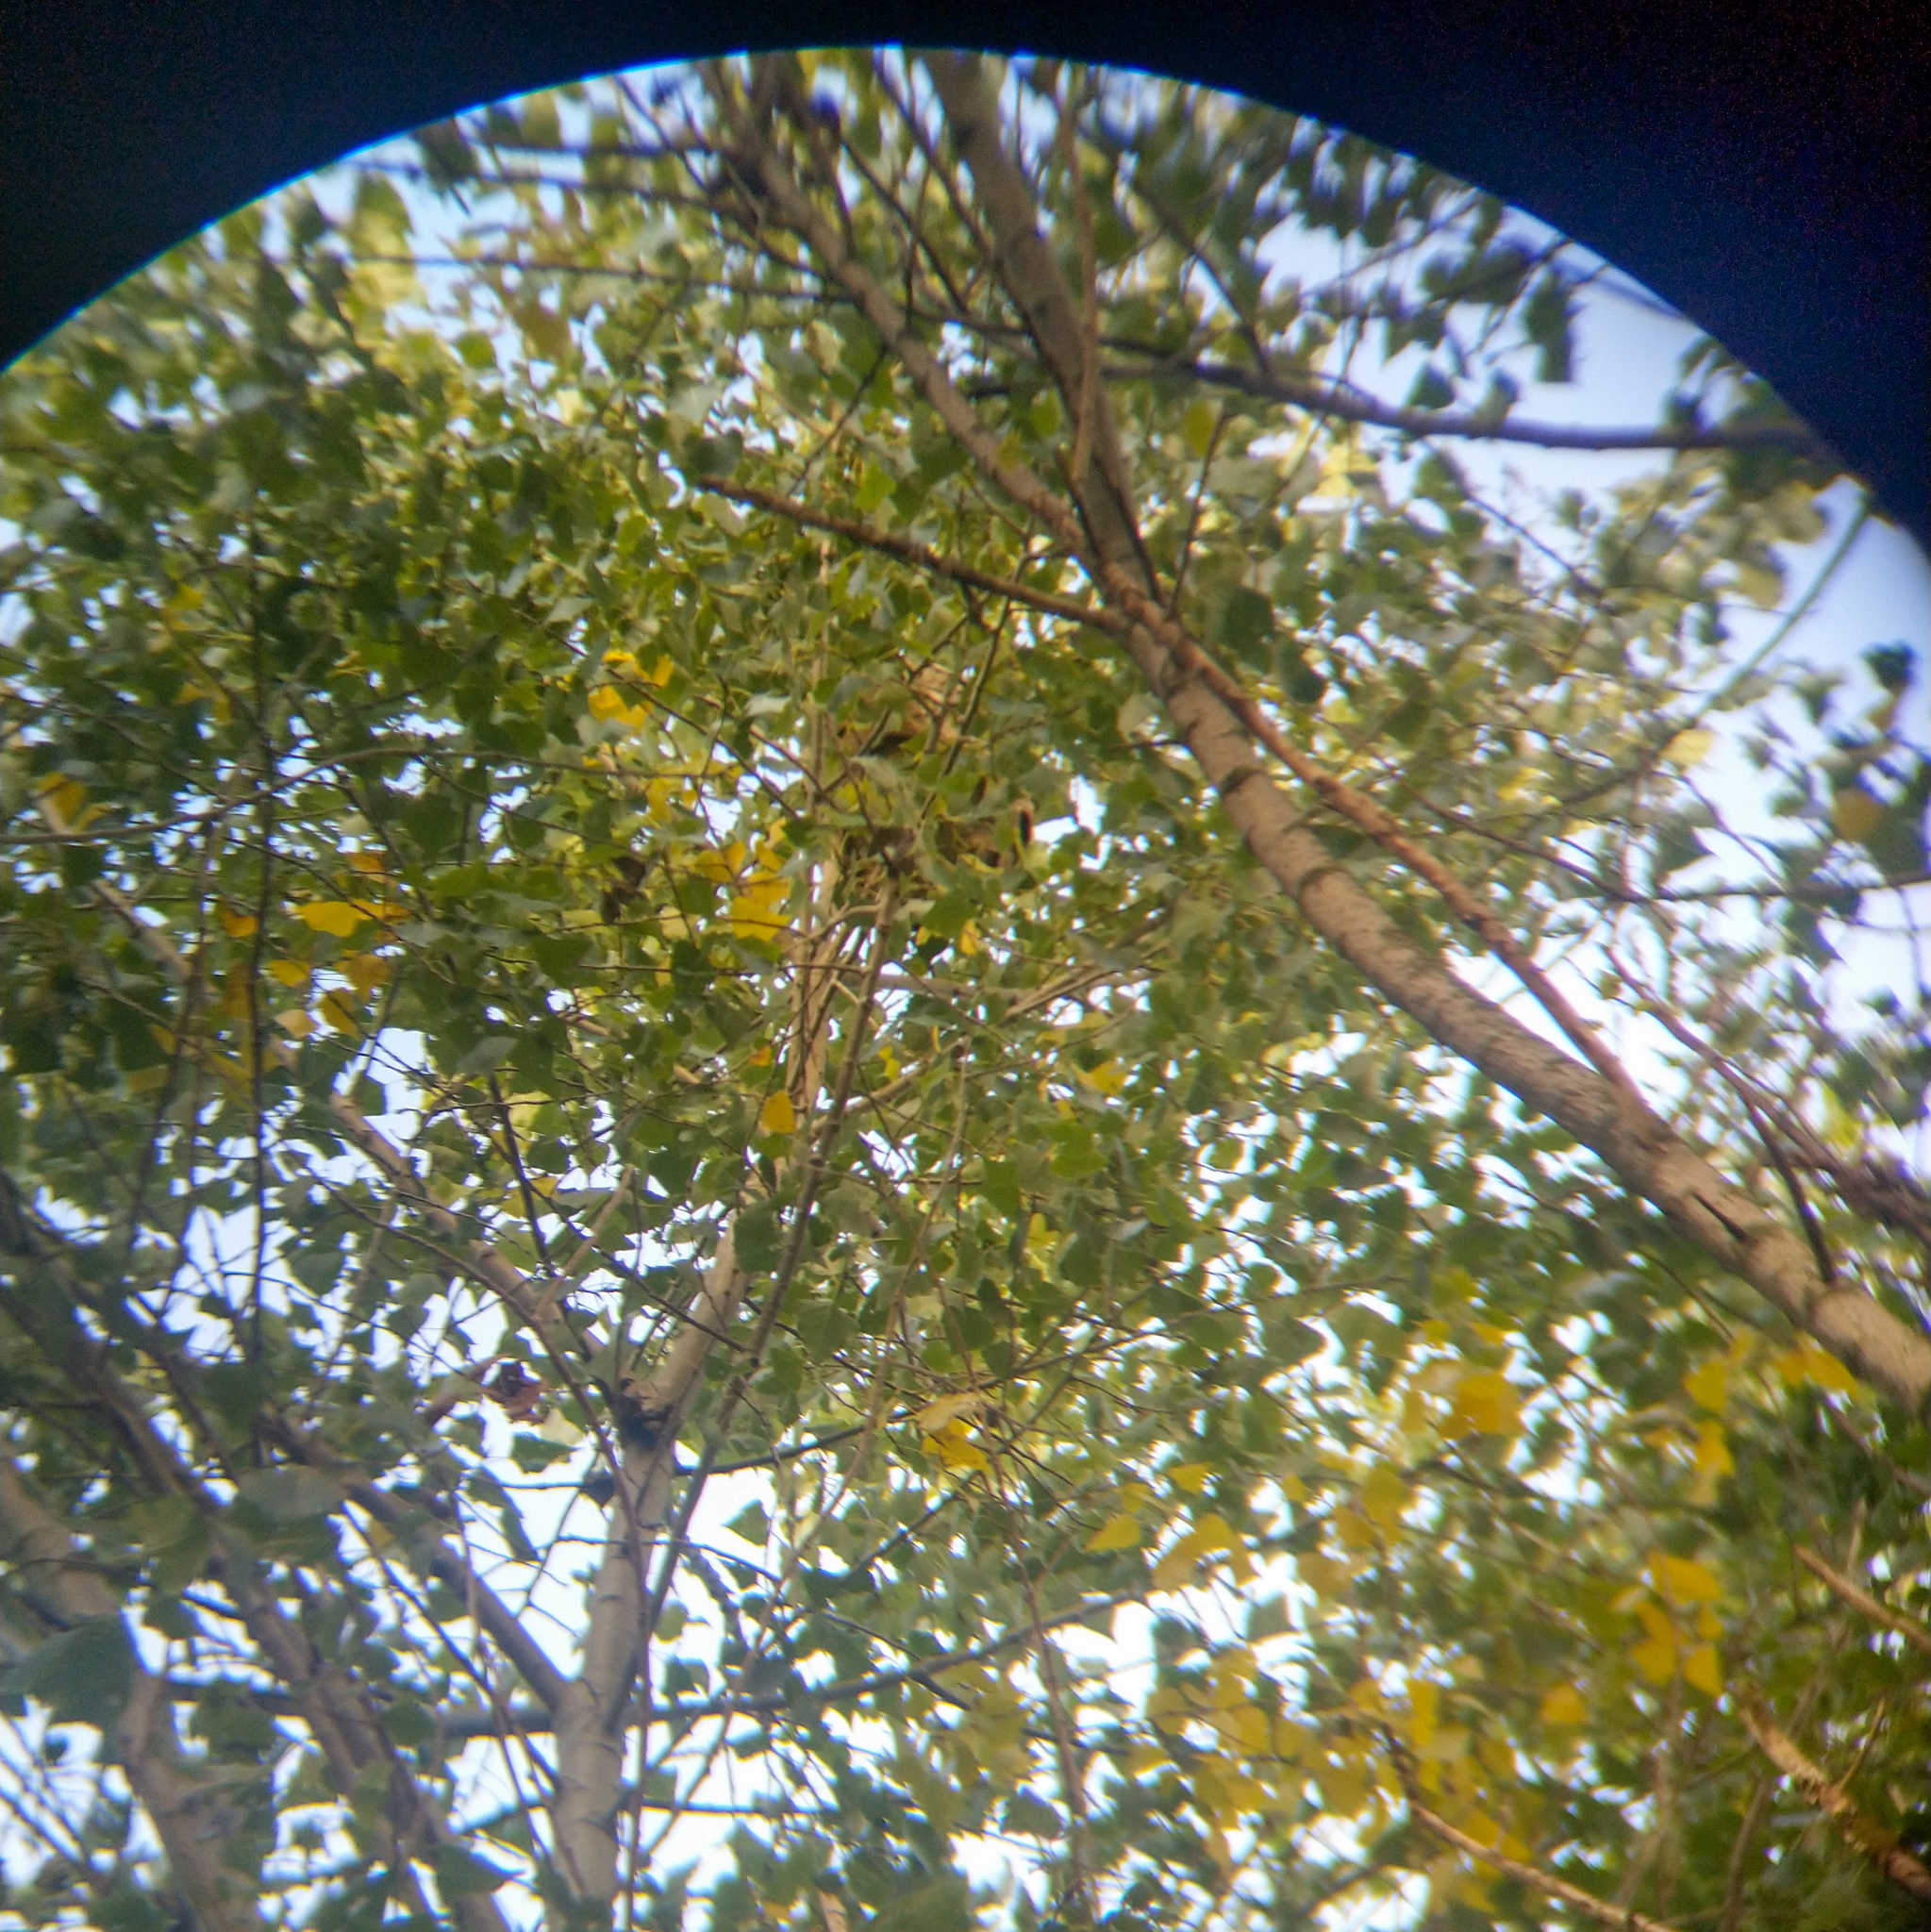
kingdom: Animalia
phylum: Arthropoda
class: Insecta
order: Hymenoptera
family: Vespidae
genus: Vespa
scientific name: Vespa velutina
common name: Asian hornet
